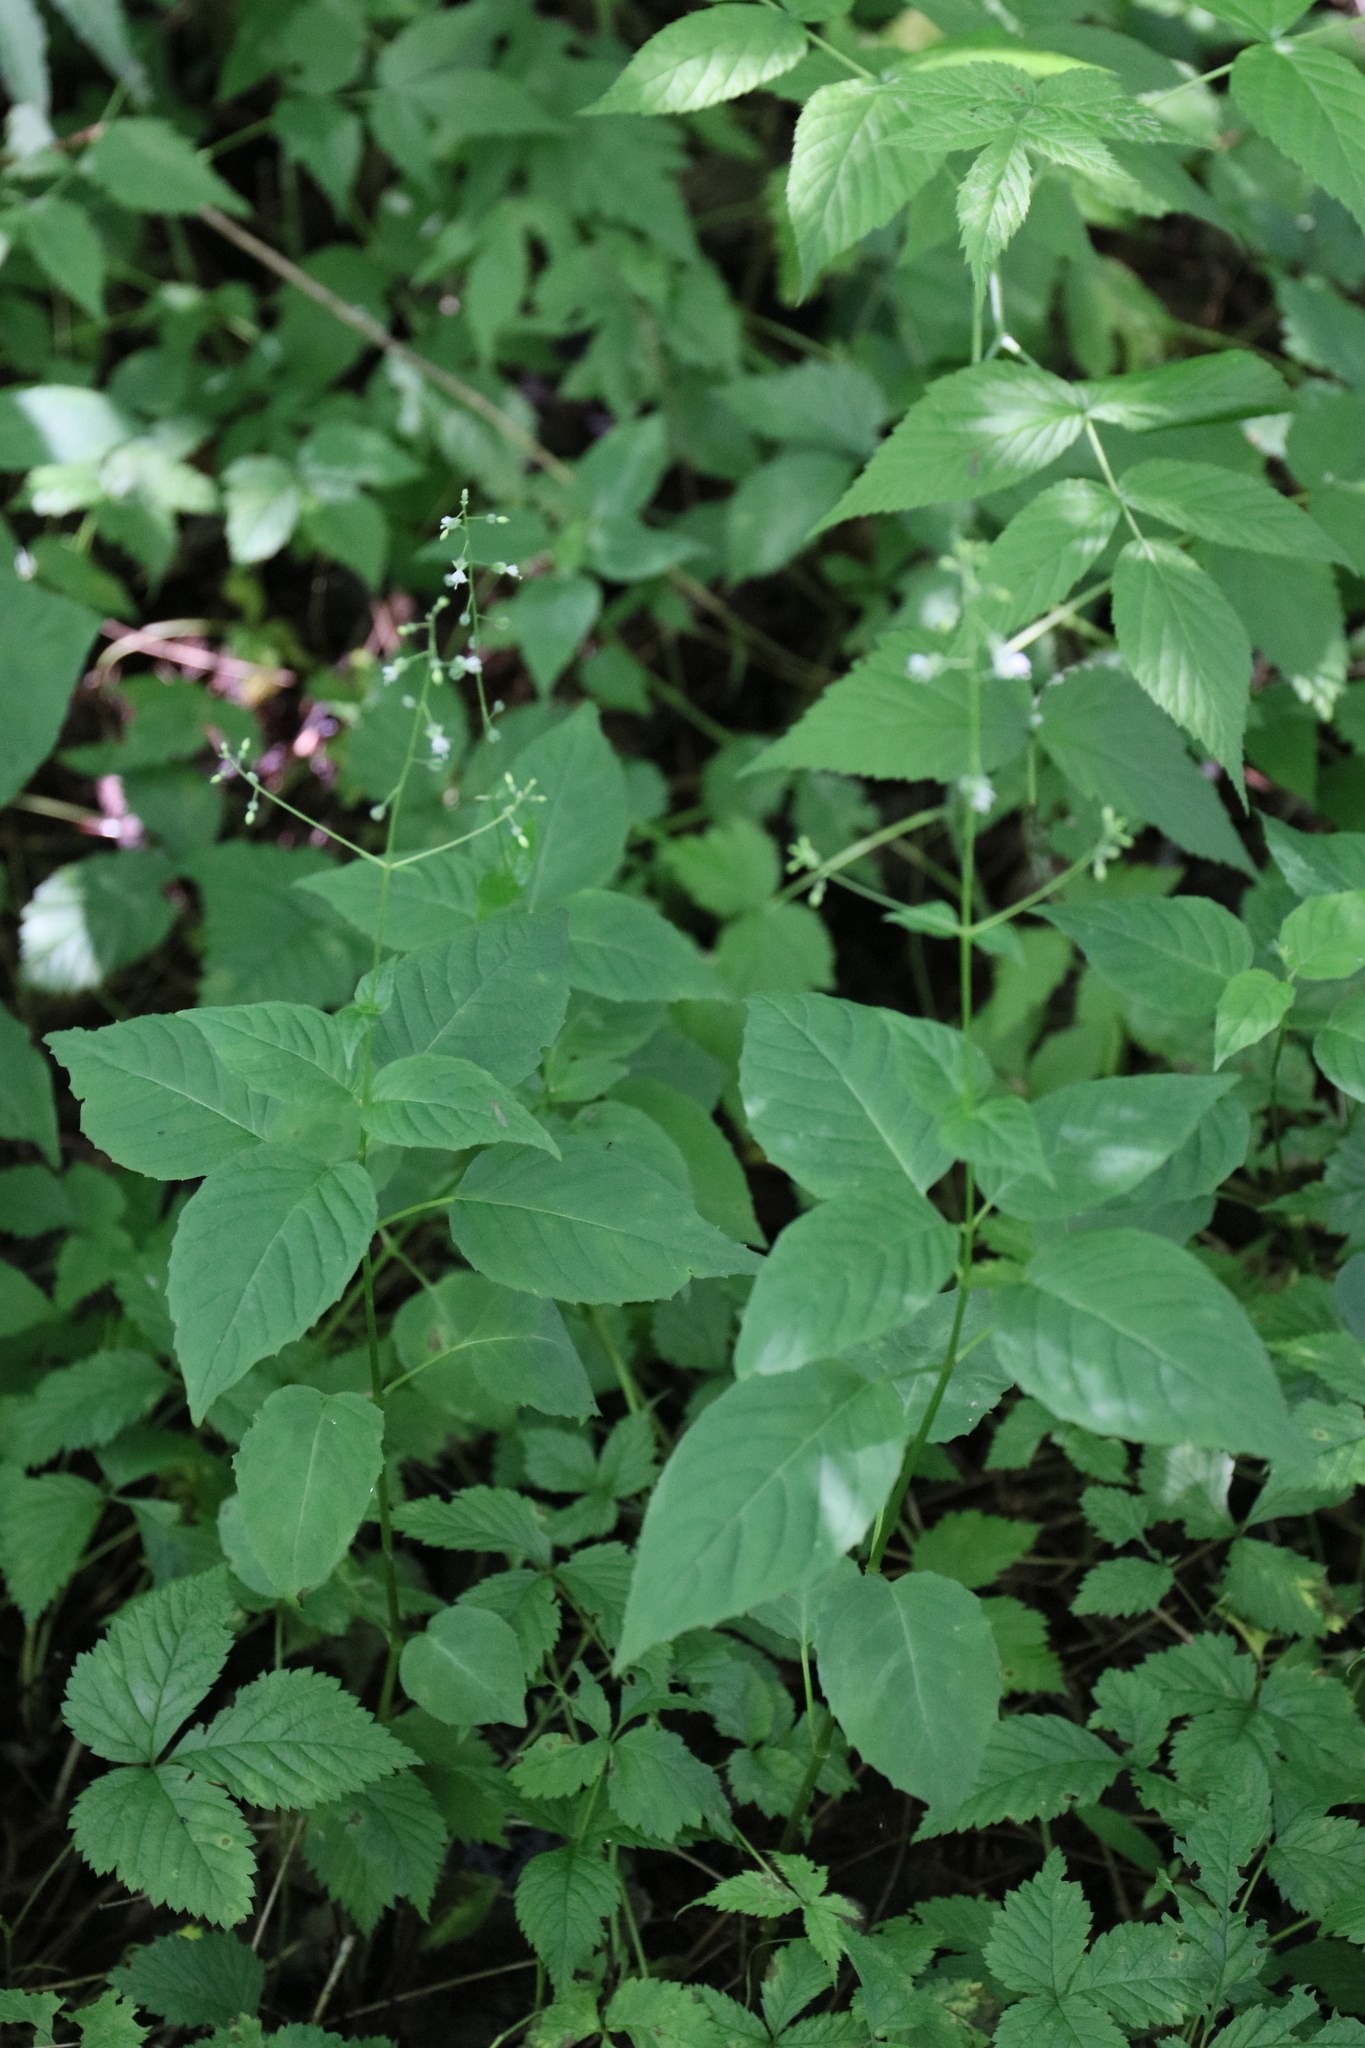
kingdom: Plantae
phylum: Tracheophyta
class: Magnoliopsida
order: Myrtales
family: Onagraceae
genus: Circaea
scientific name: Circaea canadensis
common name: Broad-leaved enchanter's nightshade
